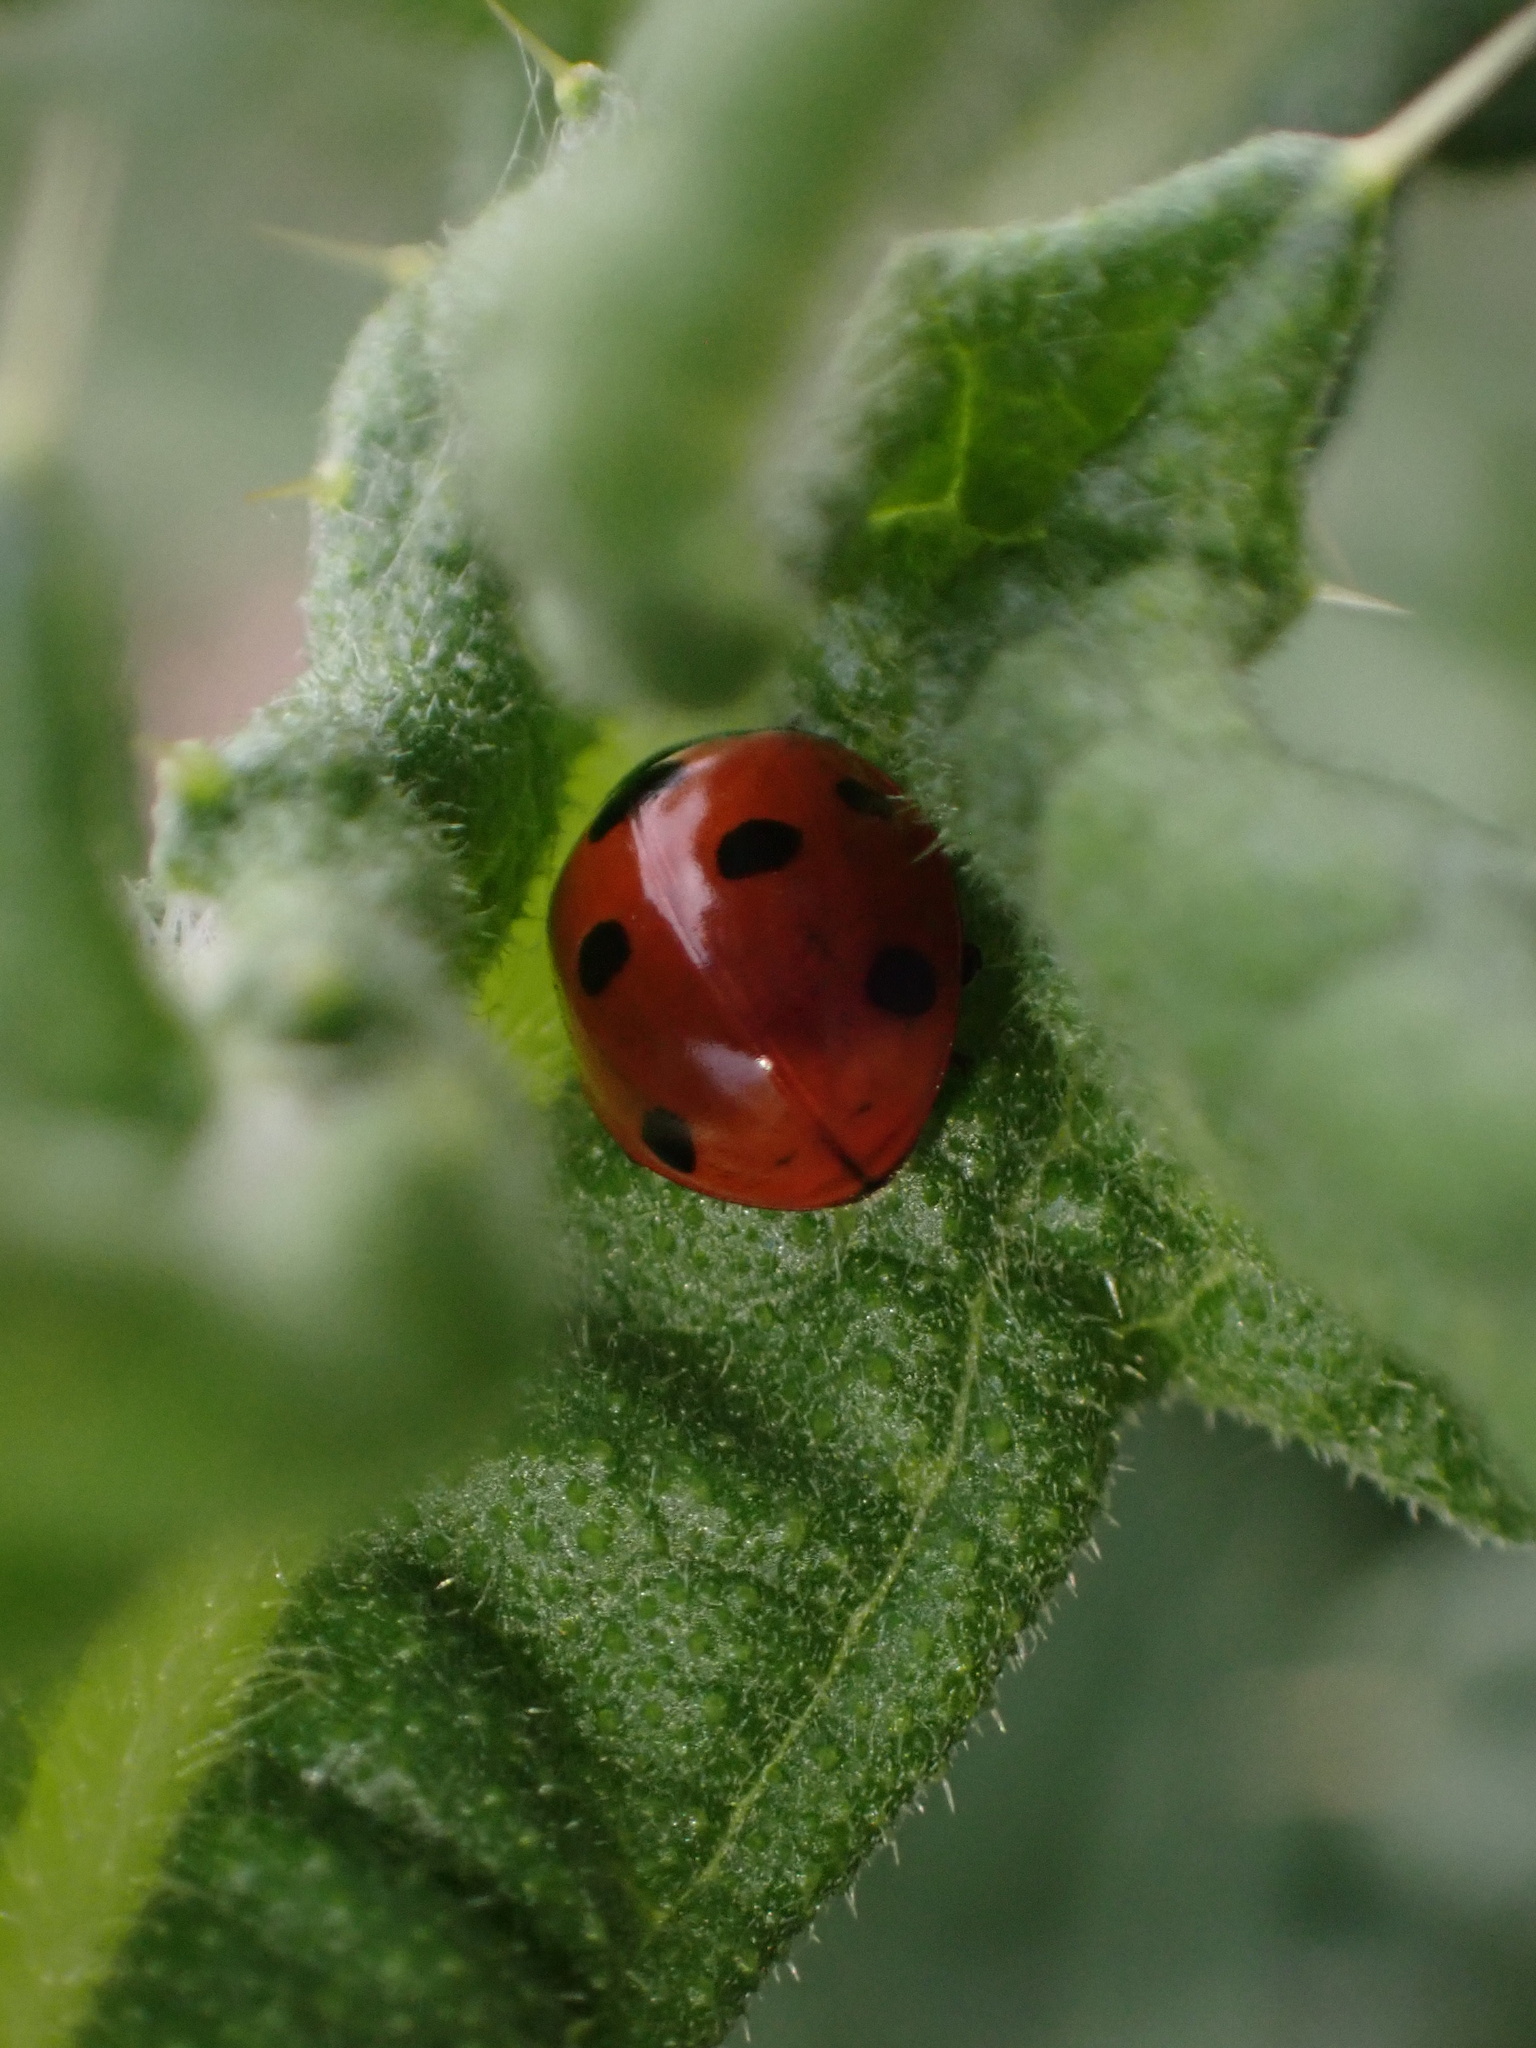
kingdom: Animalia
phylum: Arthropoda
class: Insecta
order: Coleoptera
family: Coccinellidae
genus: Coccinella
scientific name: Coccinella septempunctata
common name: Sevenspotted lady beetle
